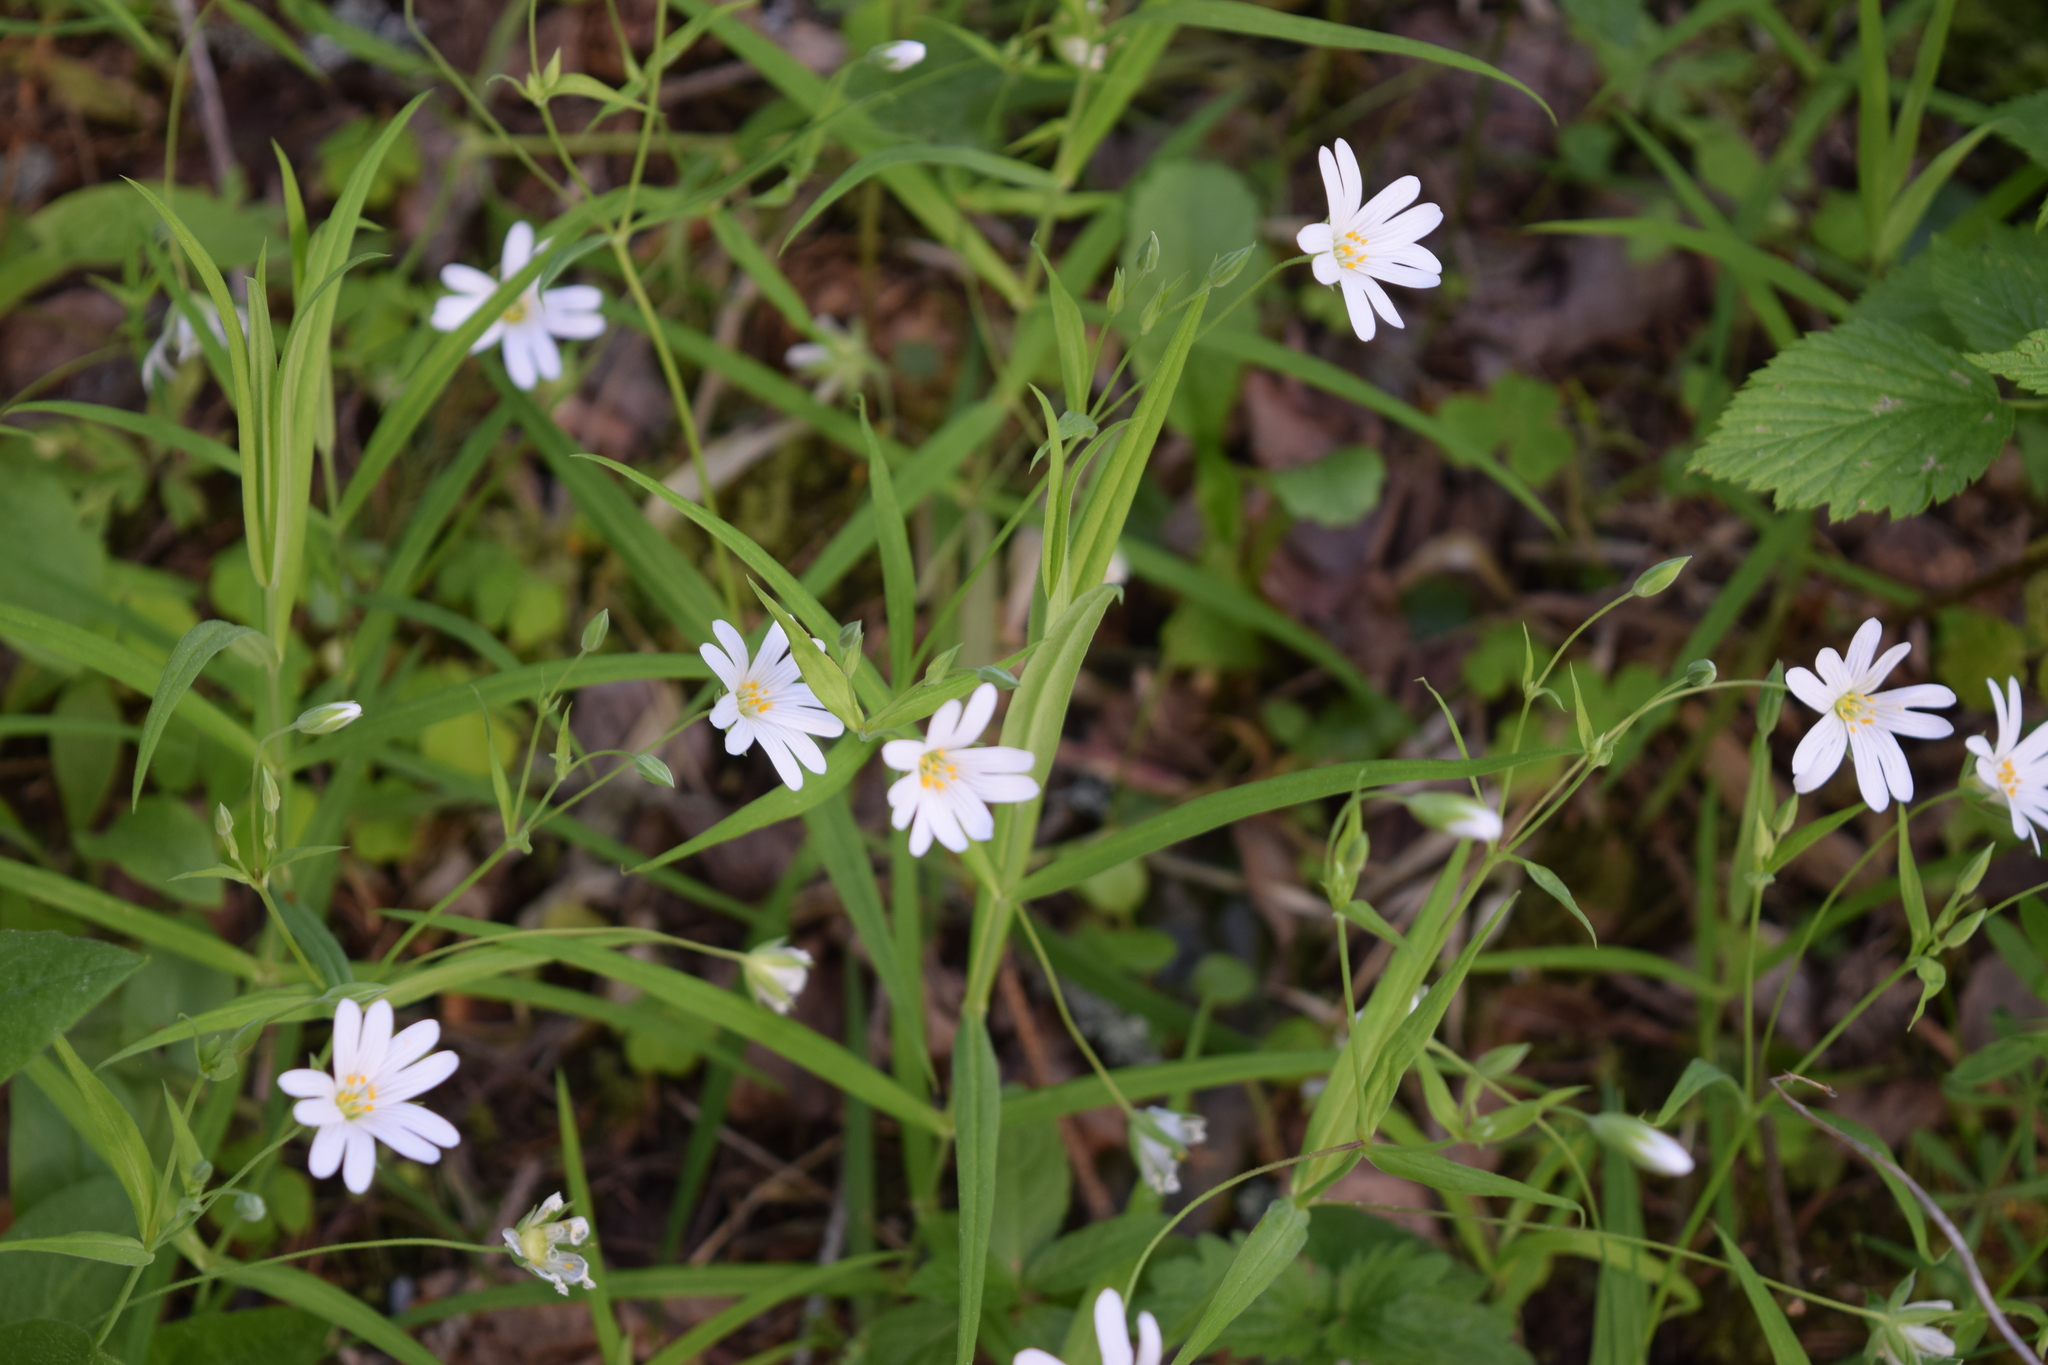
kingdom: Plantae
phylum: Tracheophyta
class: Magnoliopsida
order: Caryophyllales
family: Caryophyllaceae
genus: Rabelera
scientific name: Rabelera holostea
